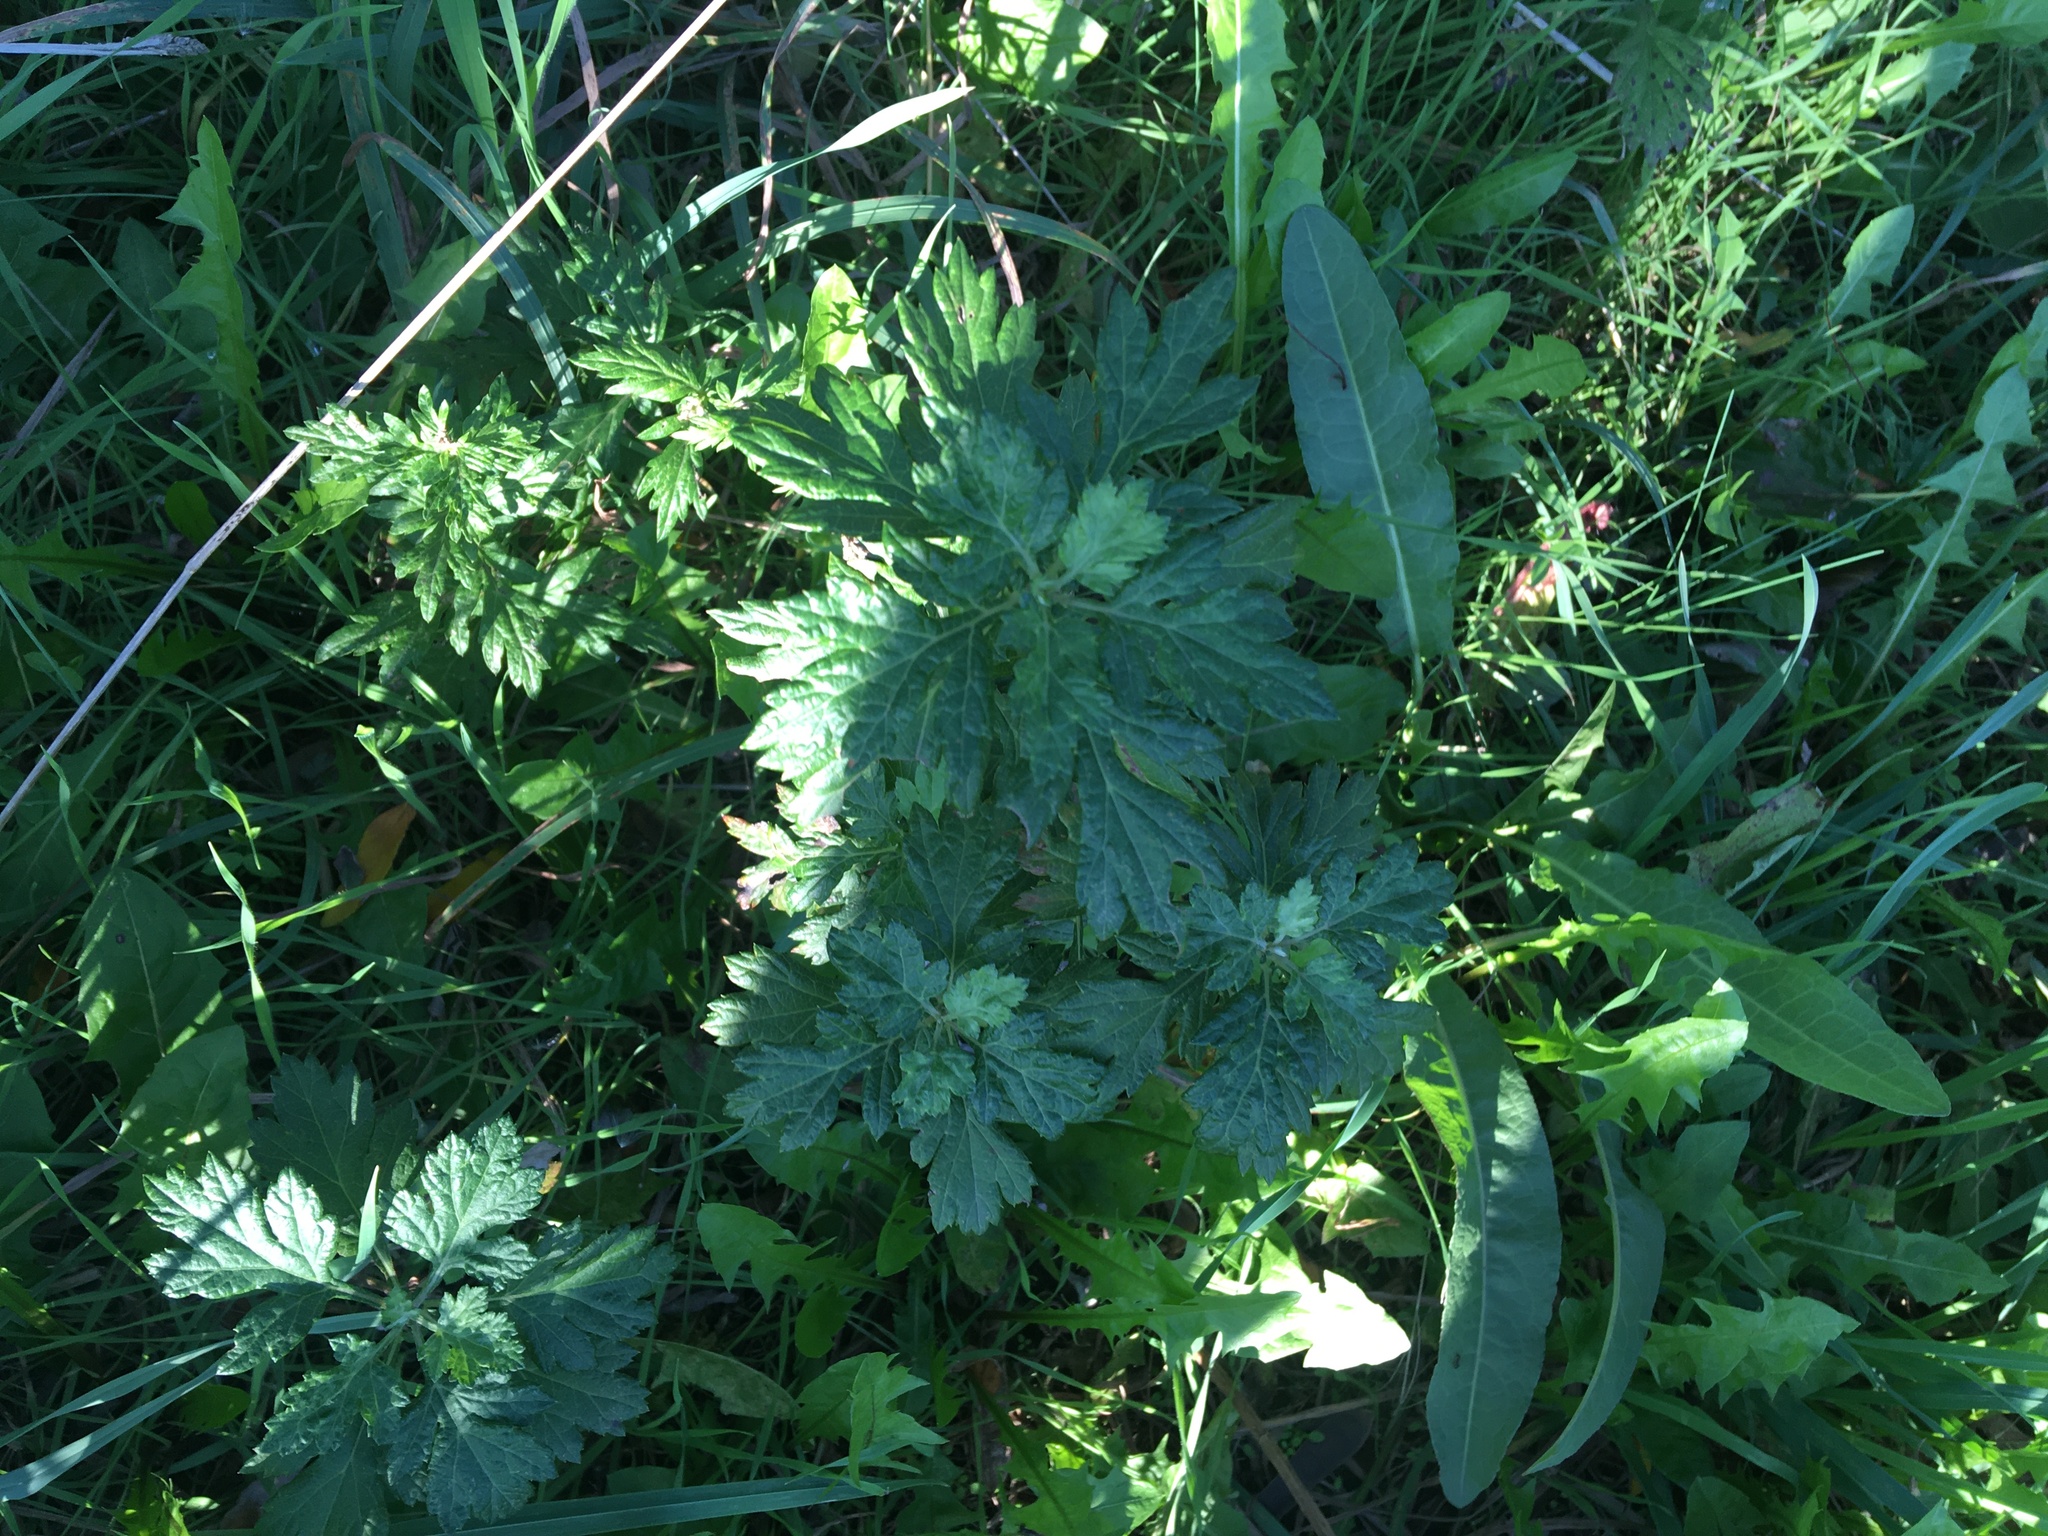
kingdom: Plantae
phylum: Tracheophyta
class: Magnoliopsida
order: Asterales
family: Asteraceae
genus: Artemisia
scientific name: Artemisia vulgaris
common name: Mugwort
